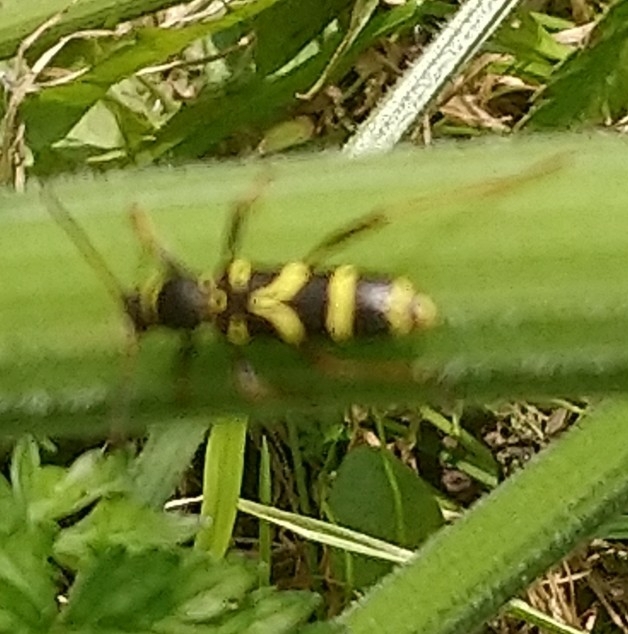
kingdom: Animalia
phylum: Arthropoda
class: Insecta
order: Coleoptera
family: Cerambycidae
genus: Clytus
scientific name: Clytus arietis
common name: Wasp beetle
